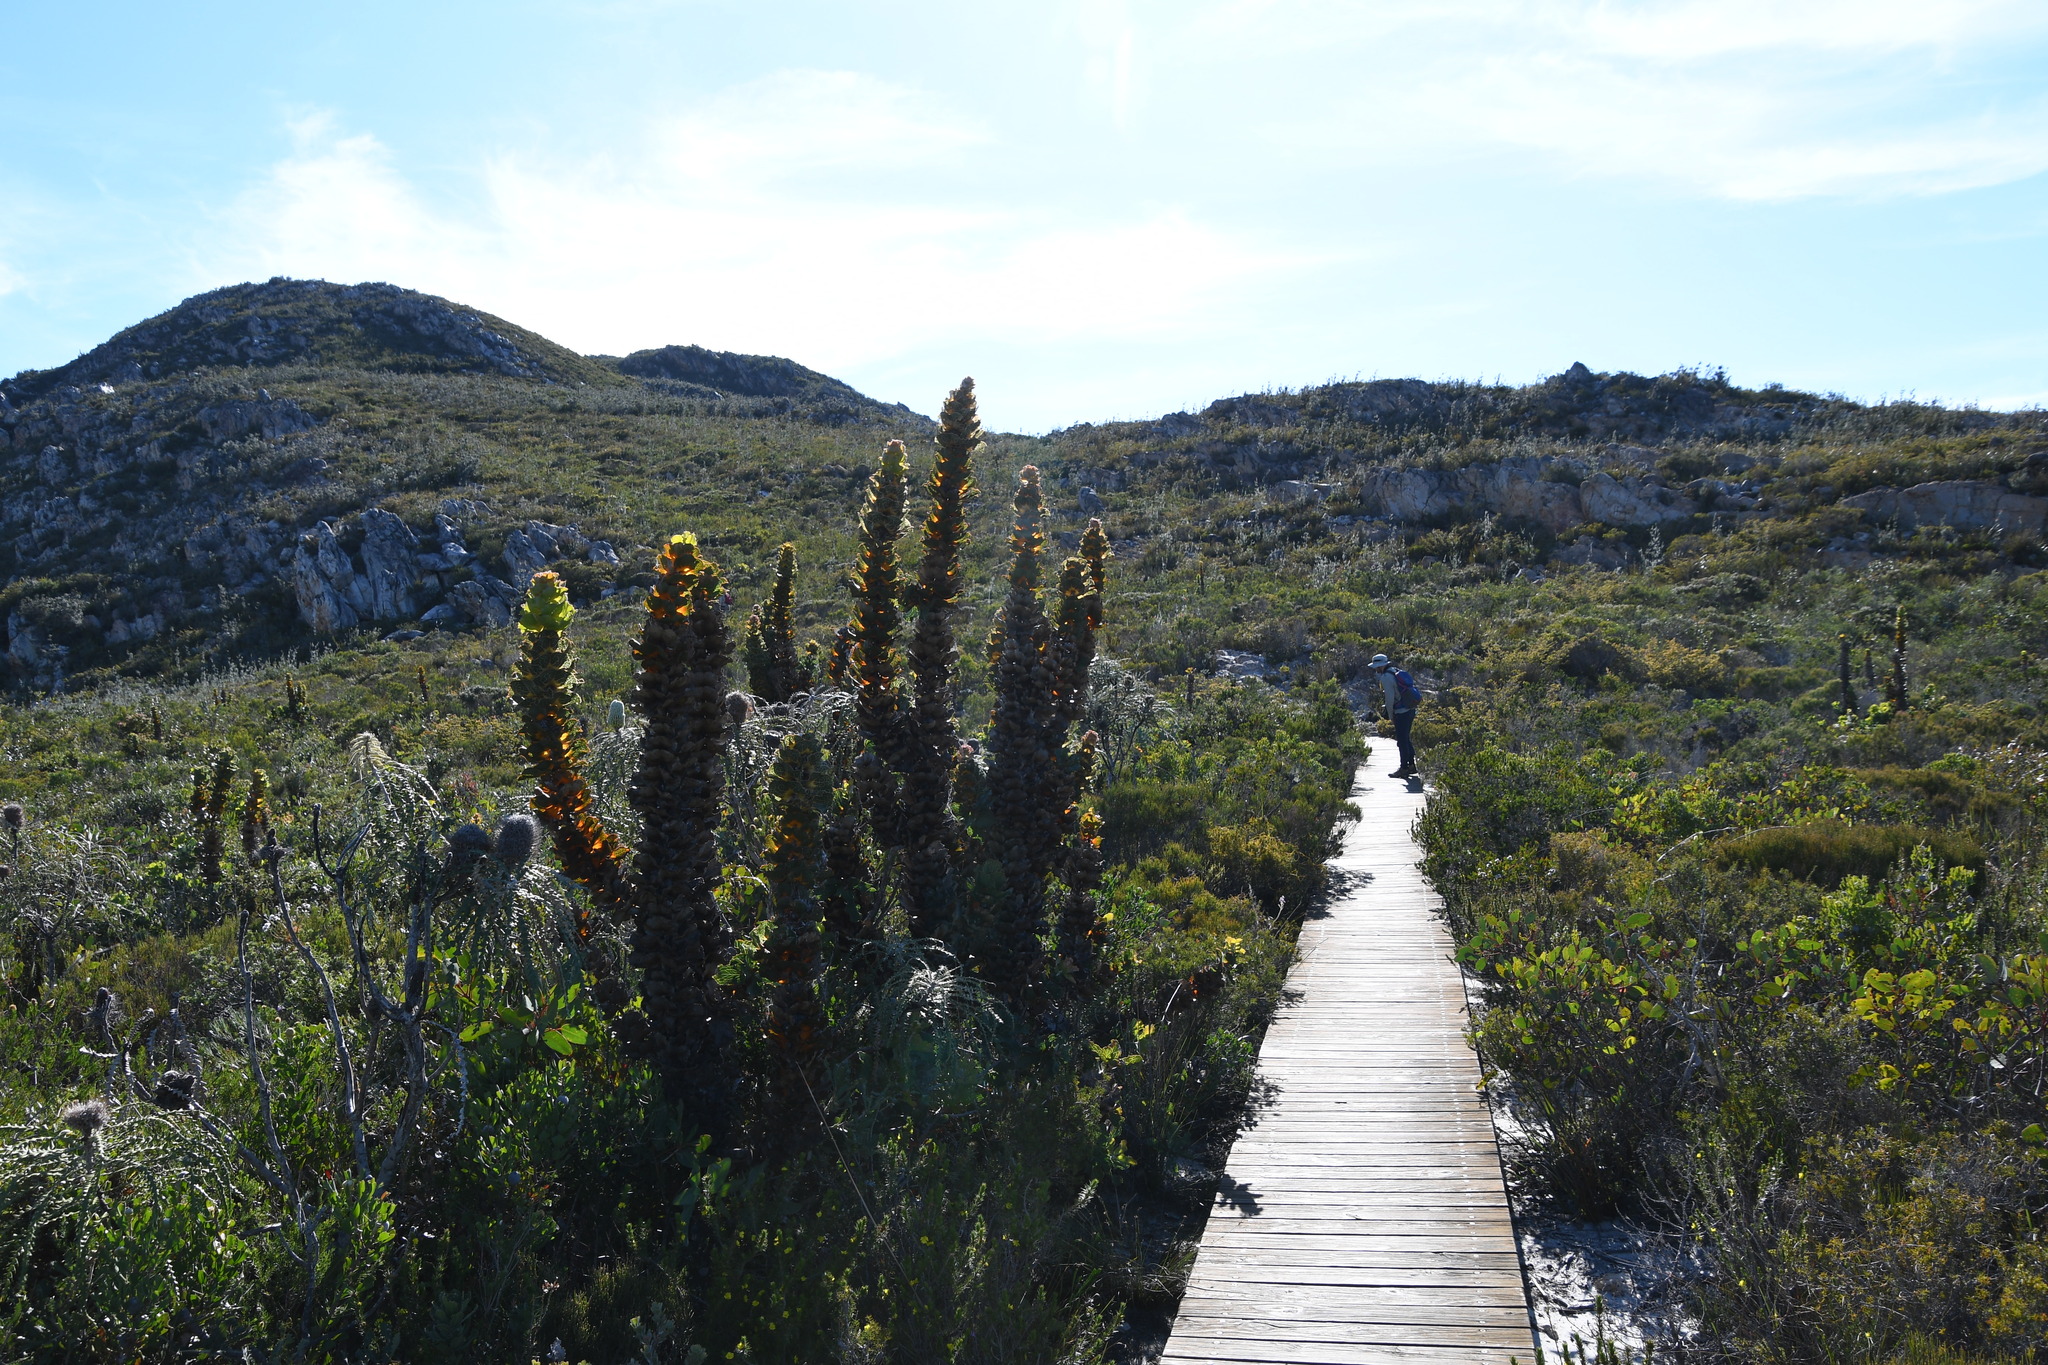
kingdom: Plantae
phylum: Tracheophyta
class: Magnoliopsida
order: Proteales
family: Proteaceae
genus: Hakea
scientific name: Hakea victoria
